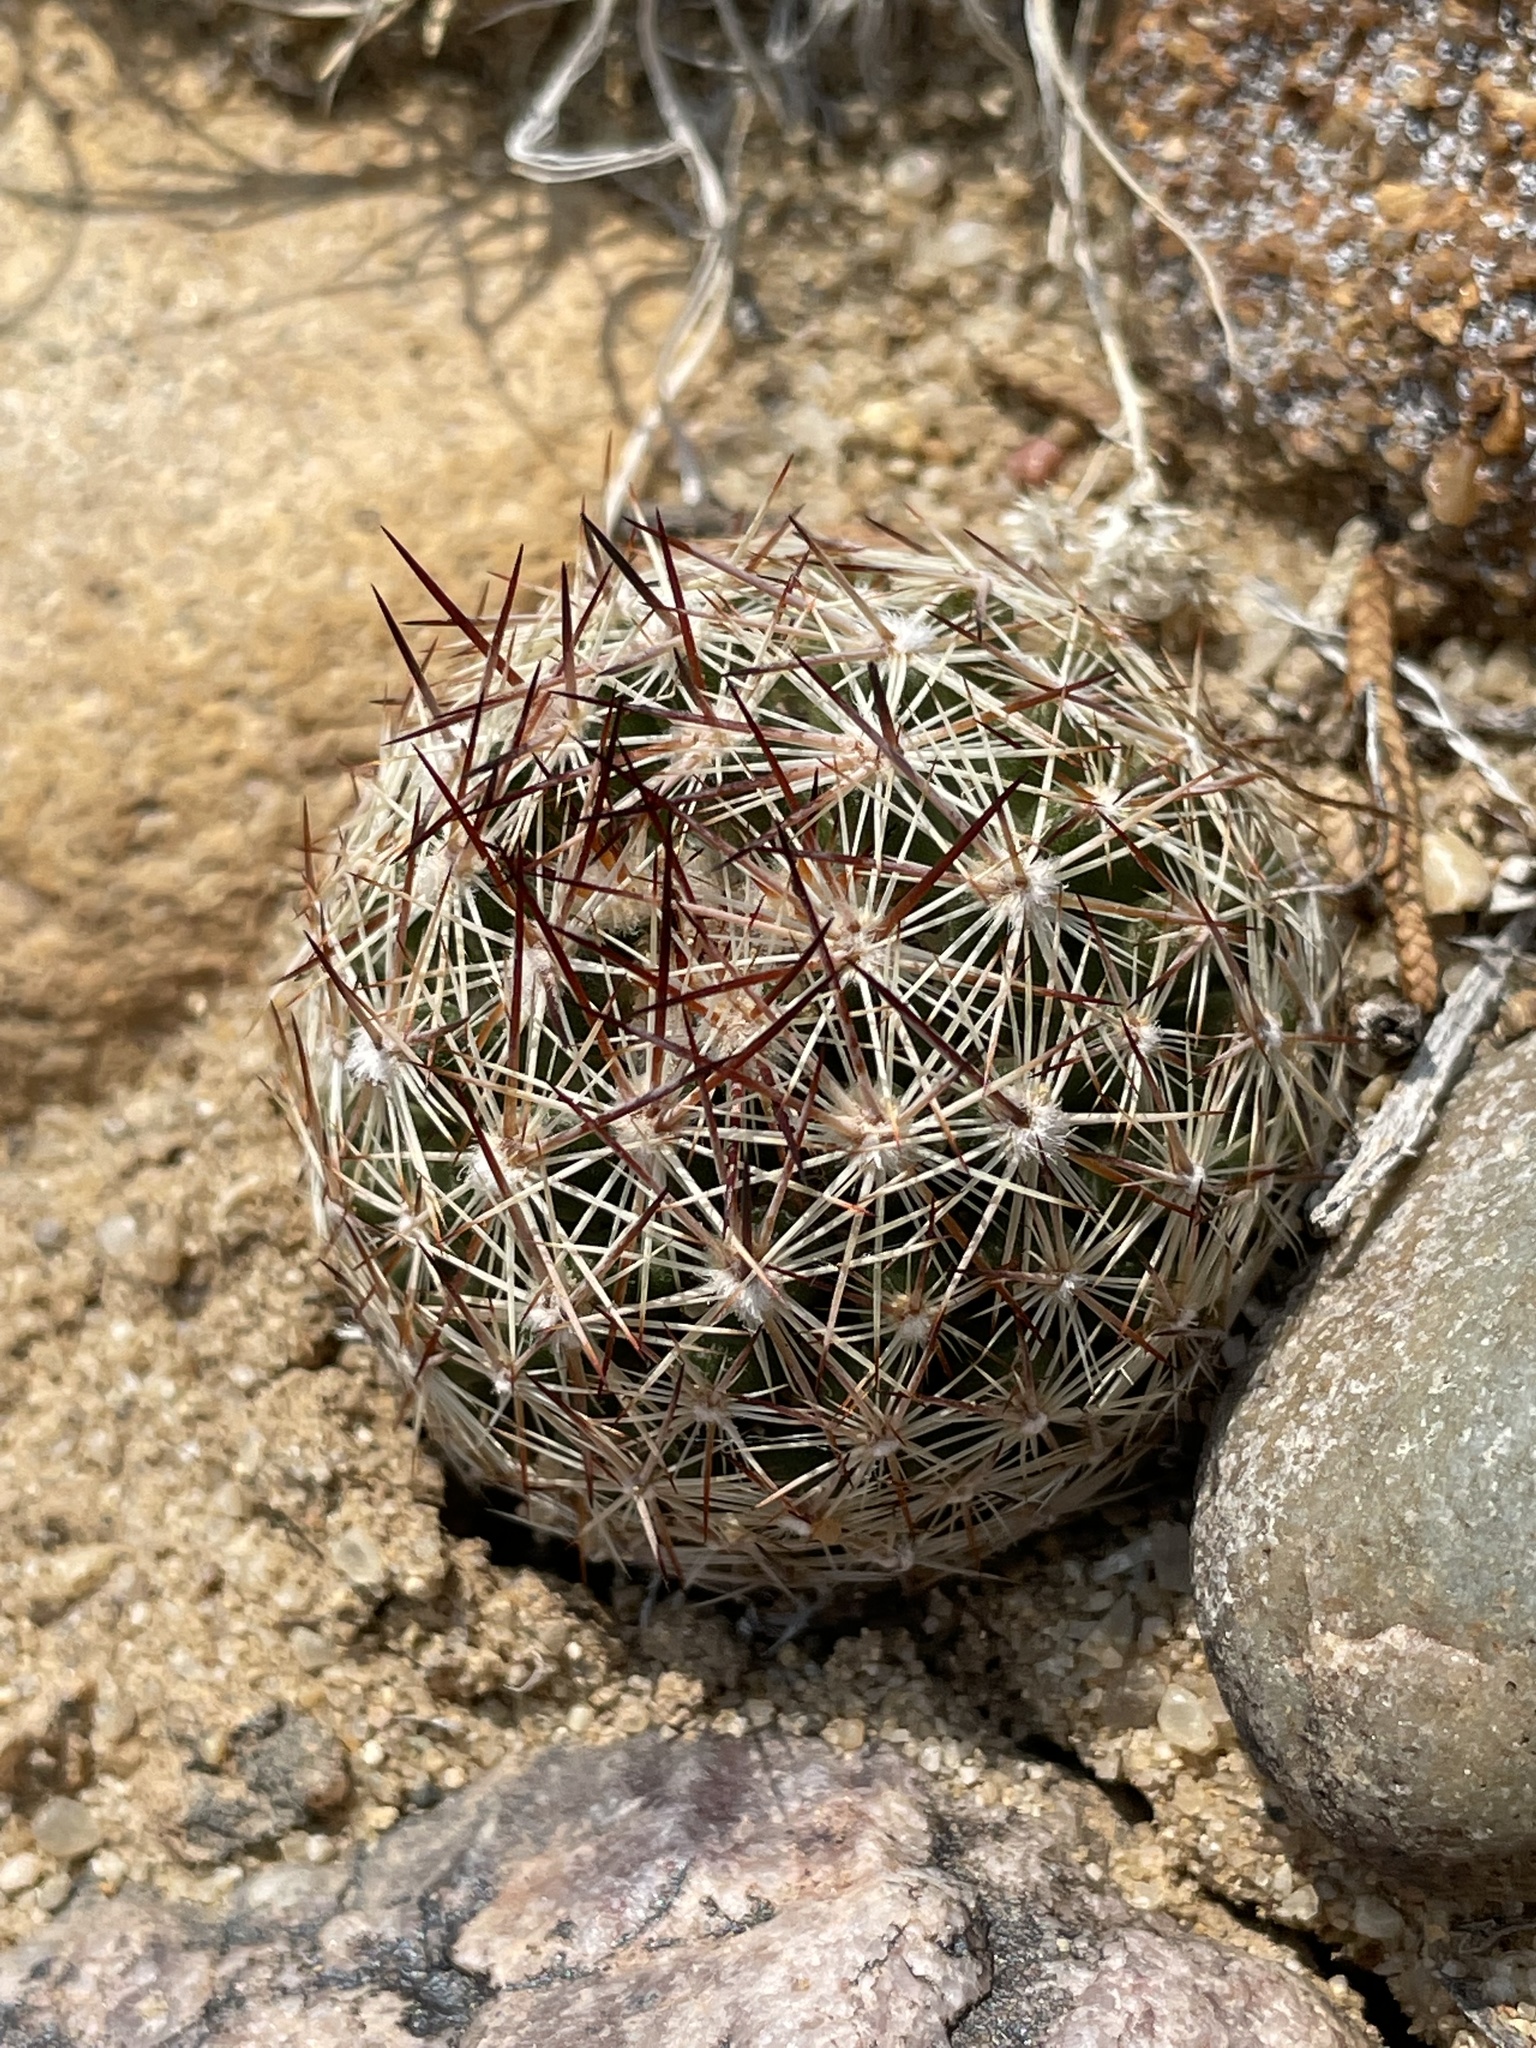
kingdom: Plantae
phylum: Tracheophyta
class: Magnoliopsida
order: Caryophyllales
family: Cactaceae
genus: Pelecyphora
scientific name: Pelecyphora vivipara
